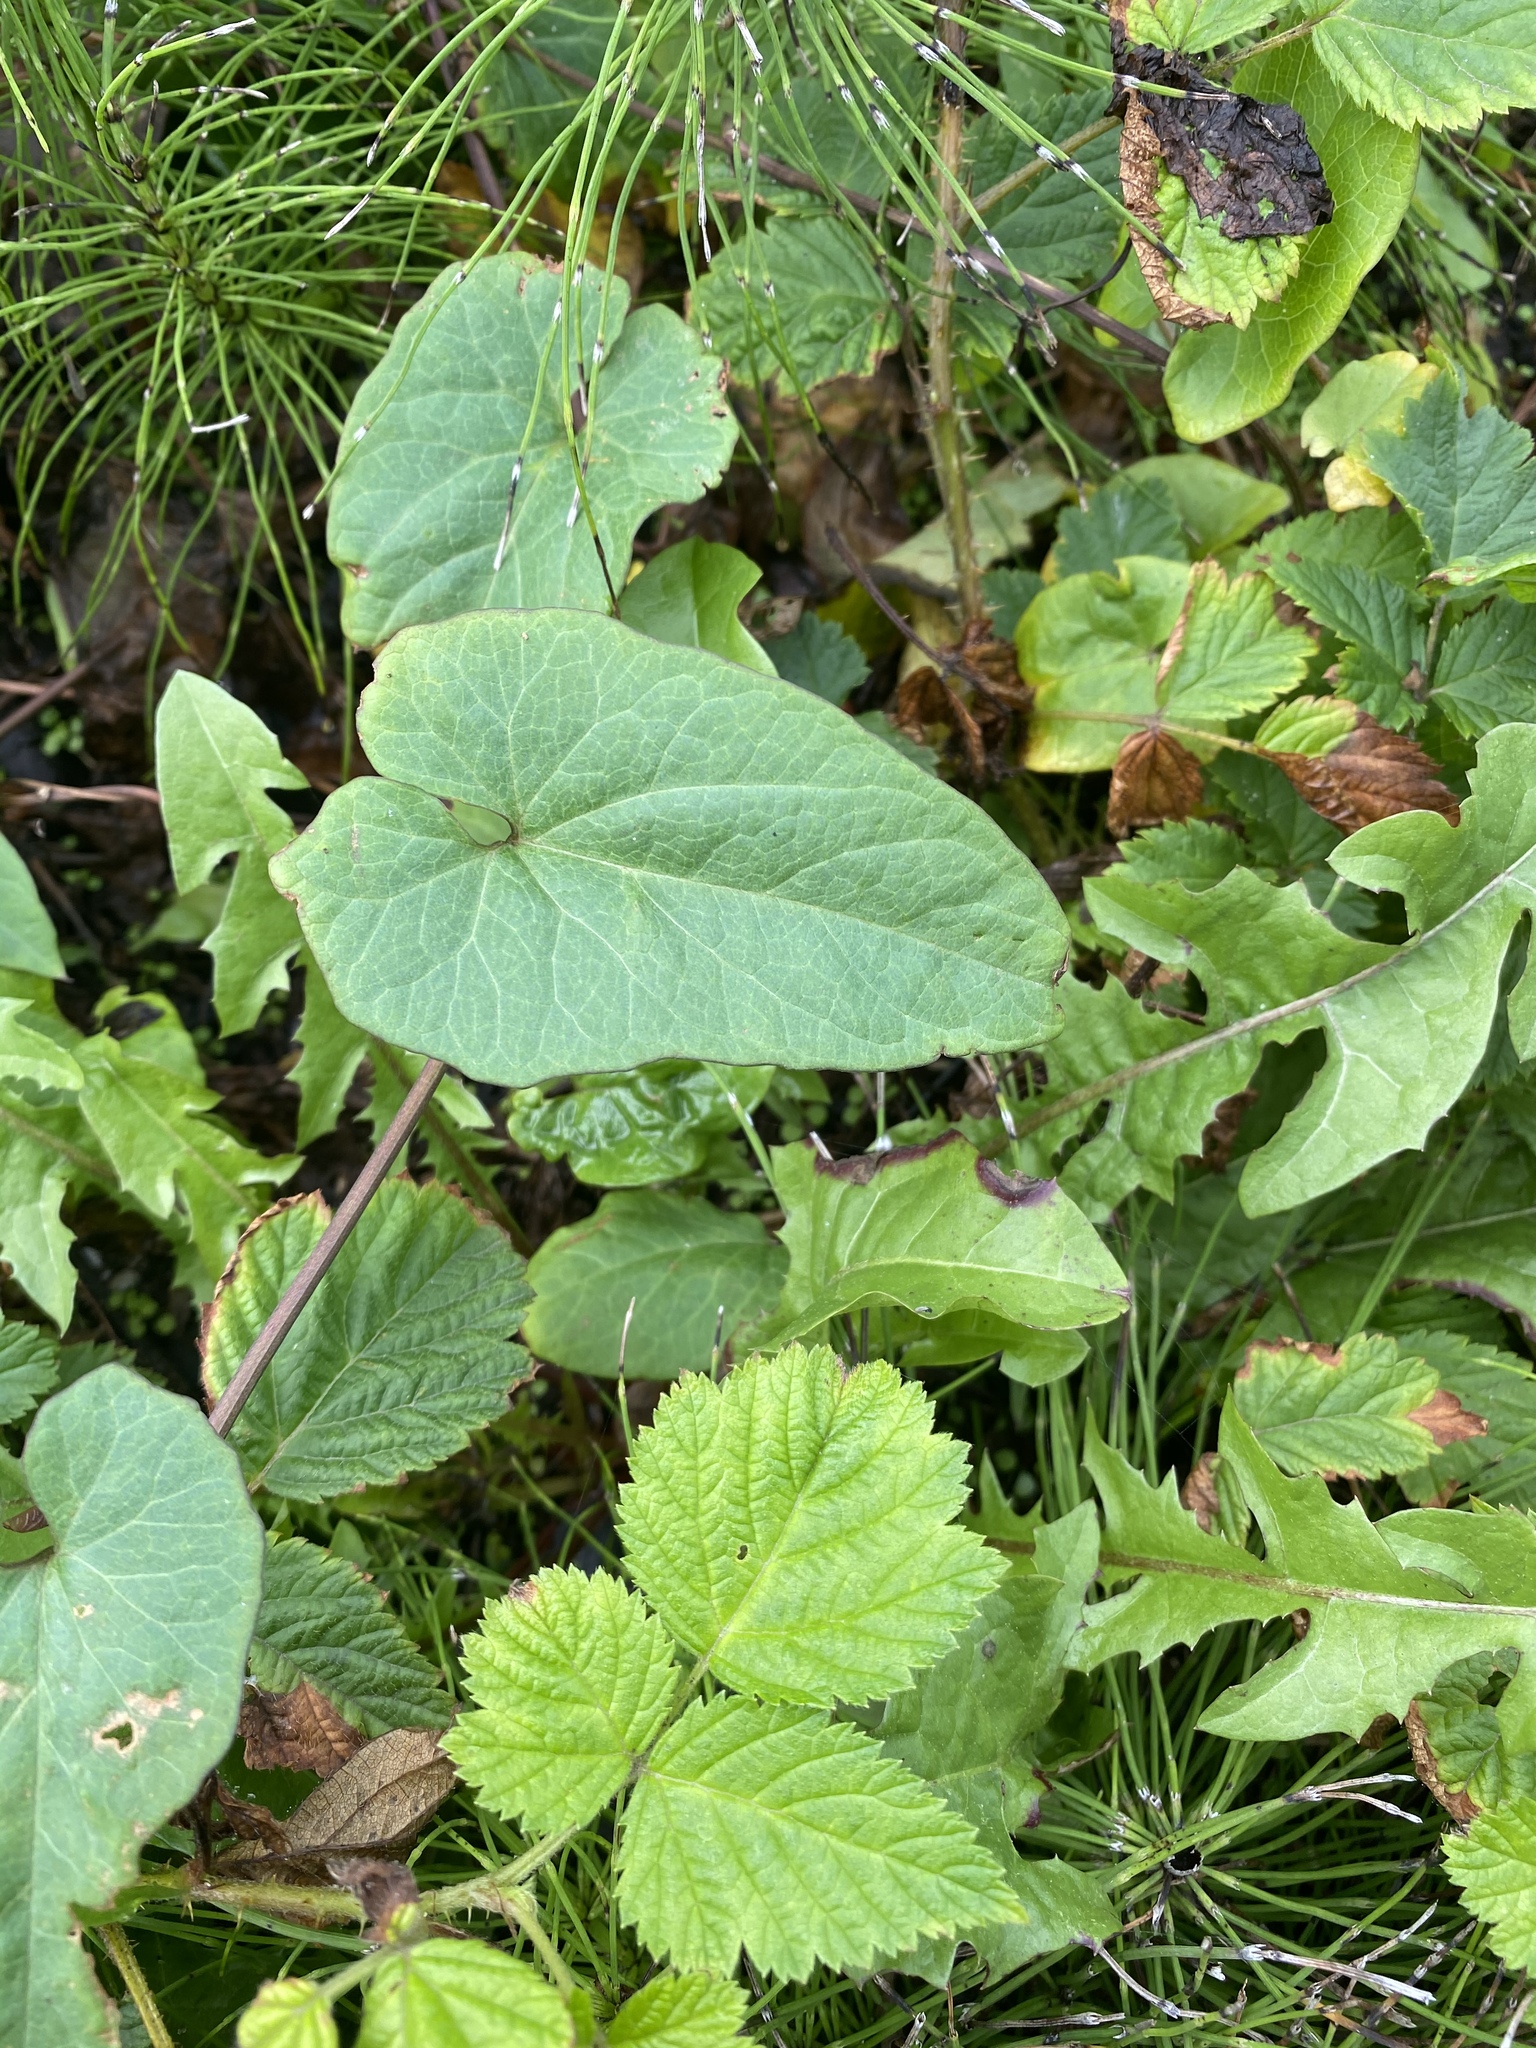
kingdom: Plantae
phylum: Tracheophyta
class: Magnoliopsida
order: Solanales
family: Convolvulaceae
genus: Calystegia
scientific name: Calystegia silvatica
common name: Large bindweed
